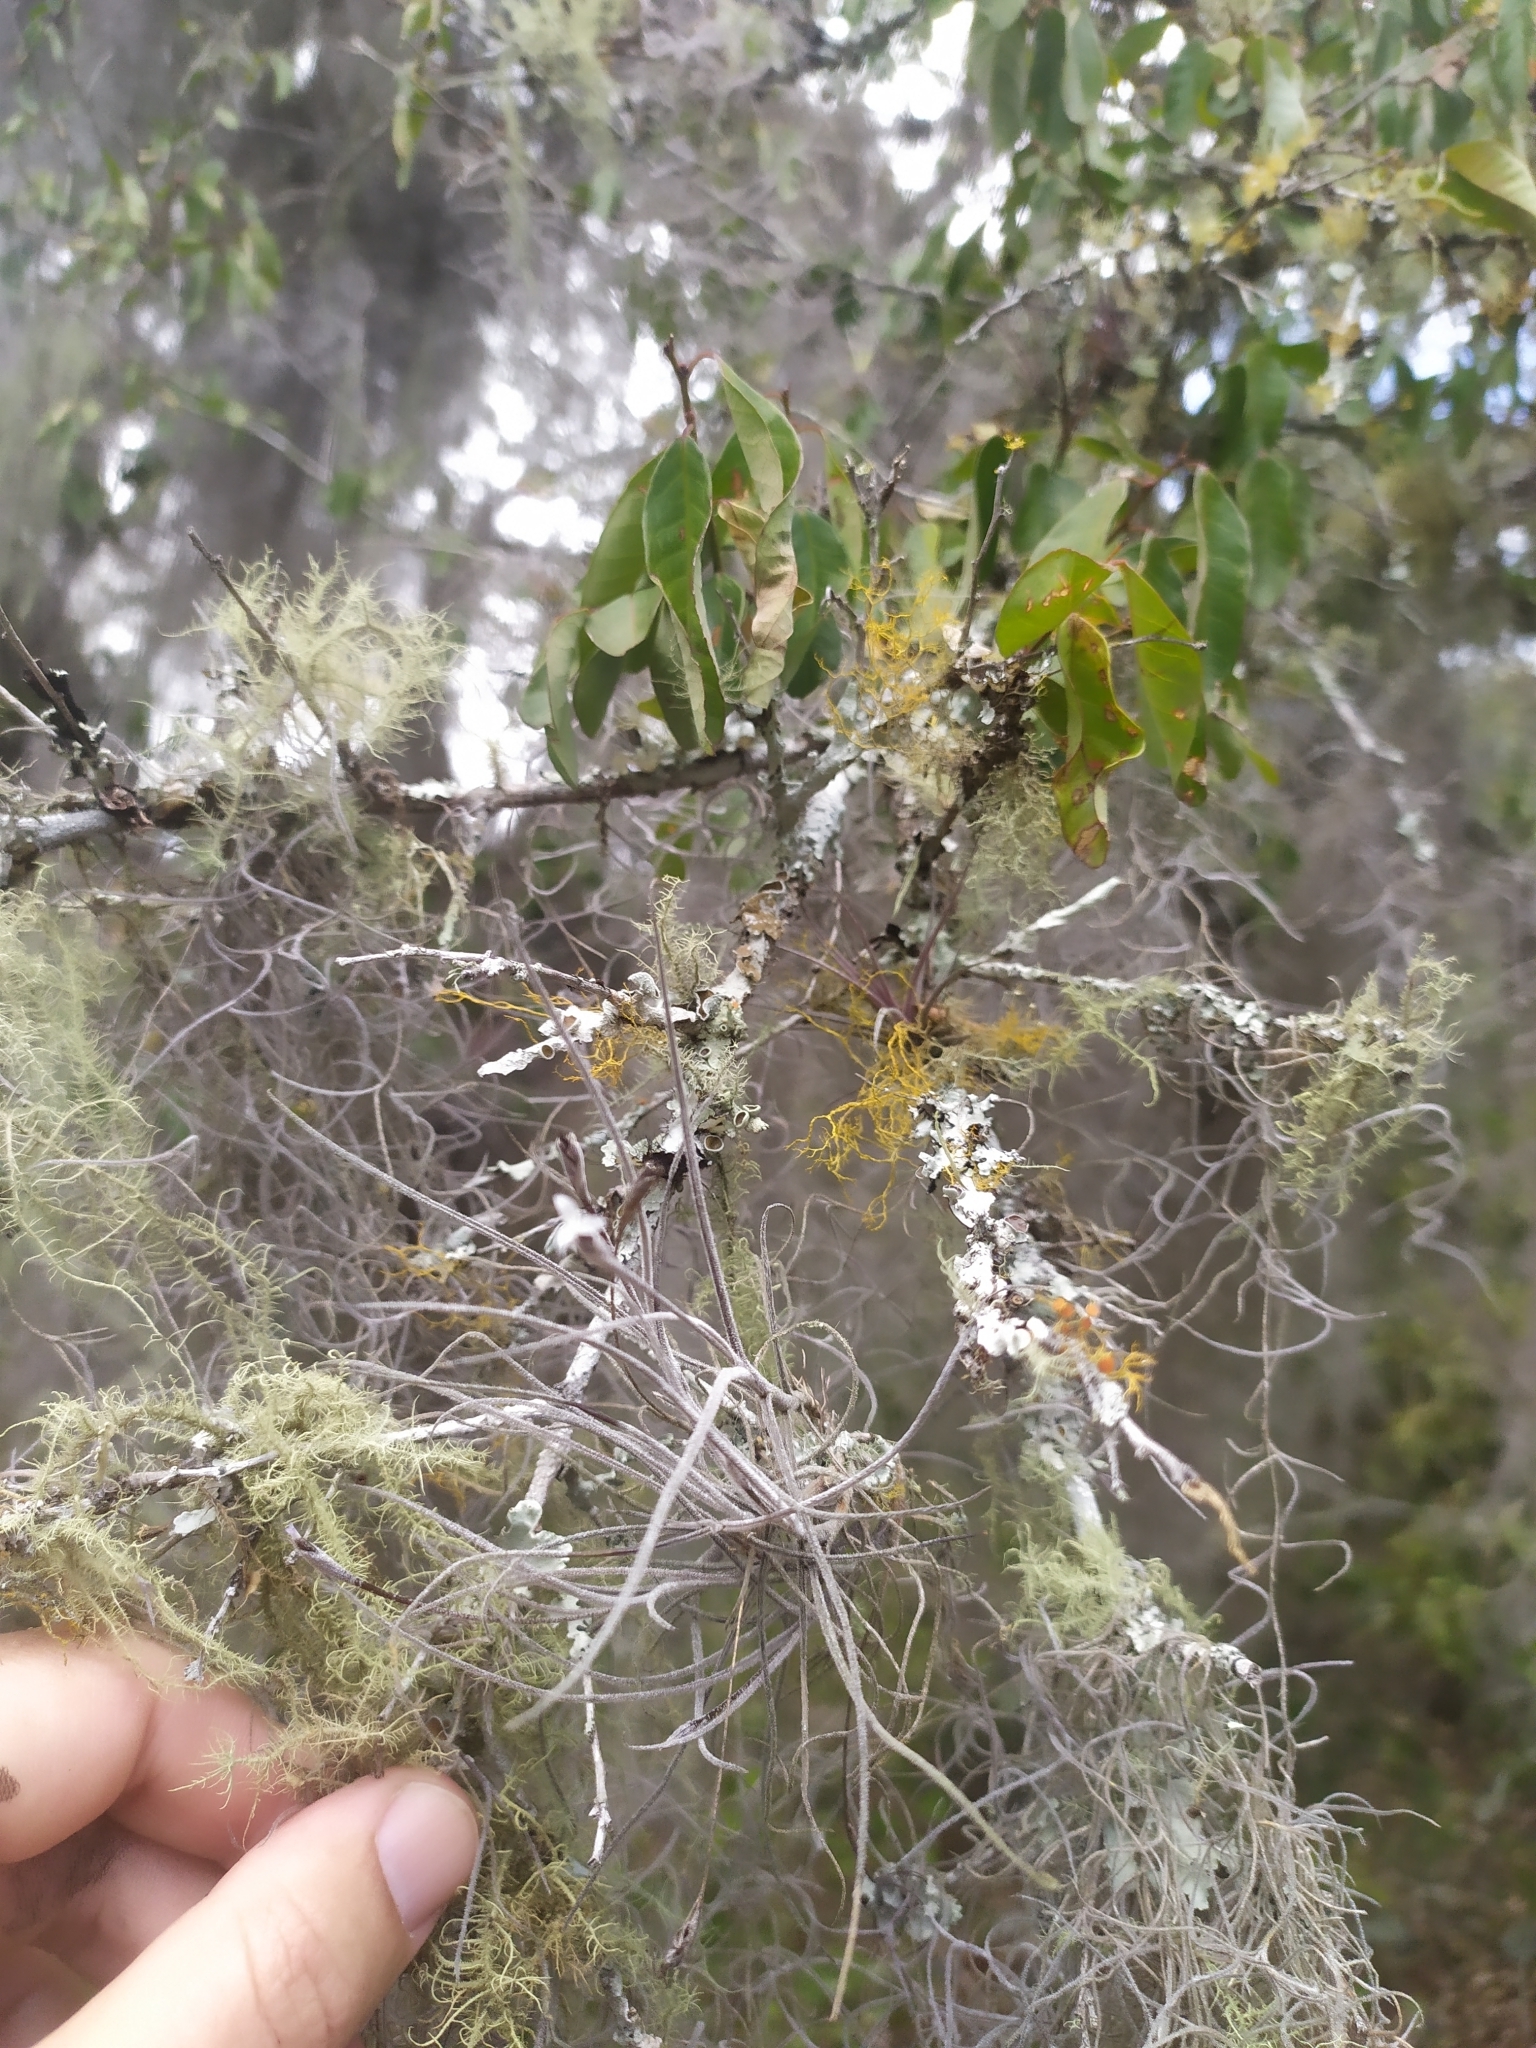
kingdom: Plantae
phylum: Tracheophyta
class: Liliopsida
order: Poales
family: Bromeliaceae
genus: Tillandsia
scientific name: Tillandsia recurvata
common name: Small ballmoss
